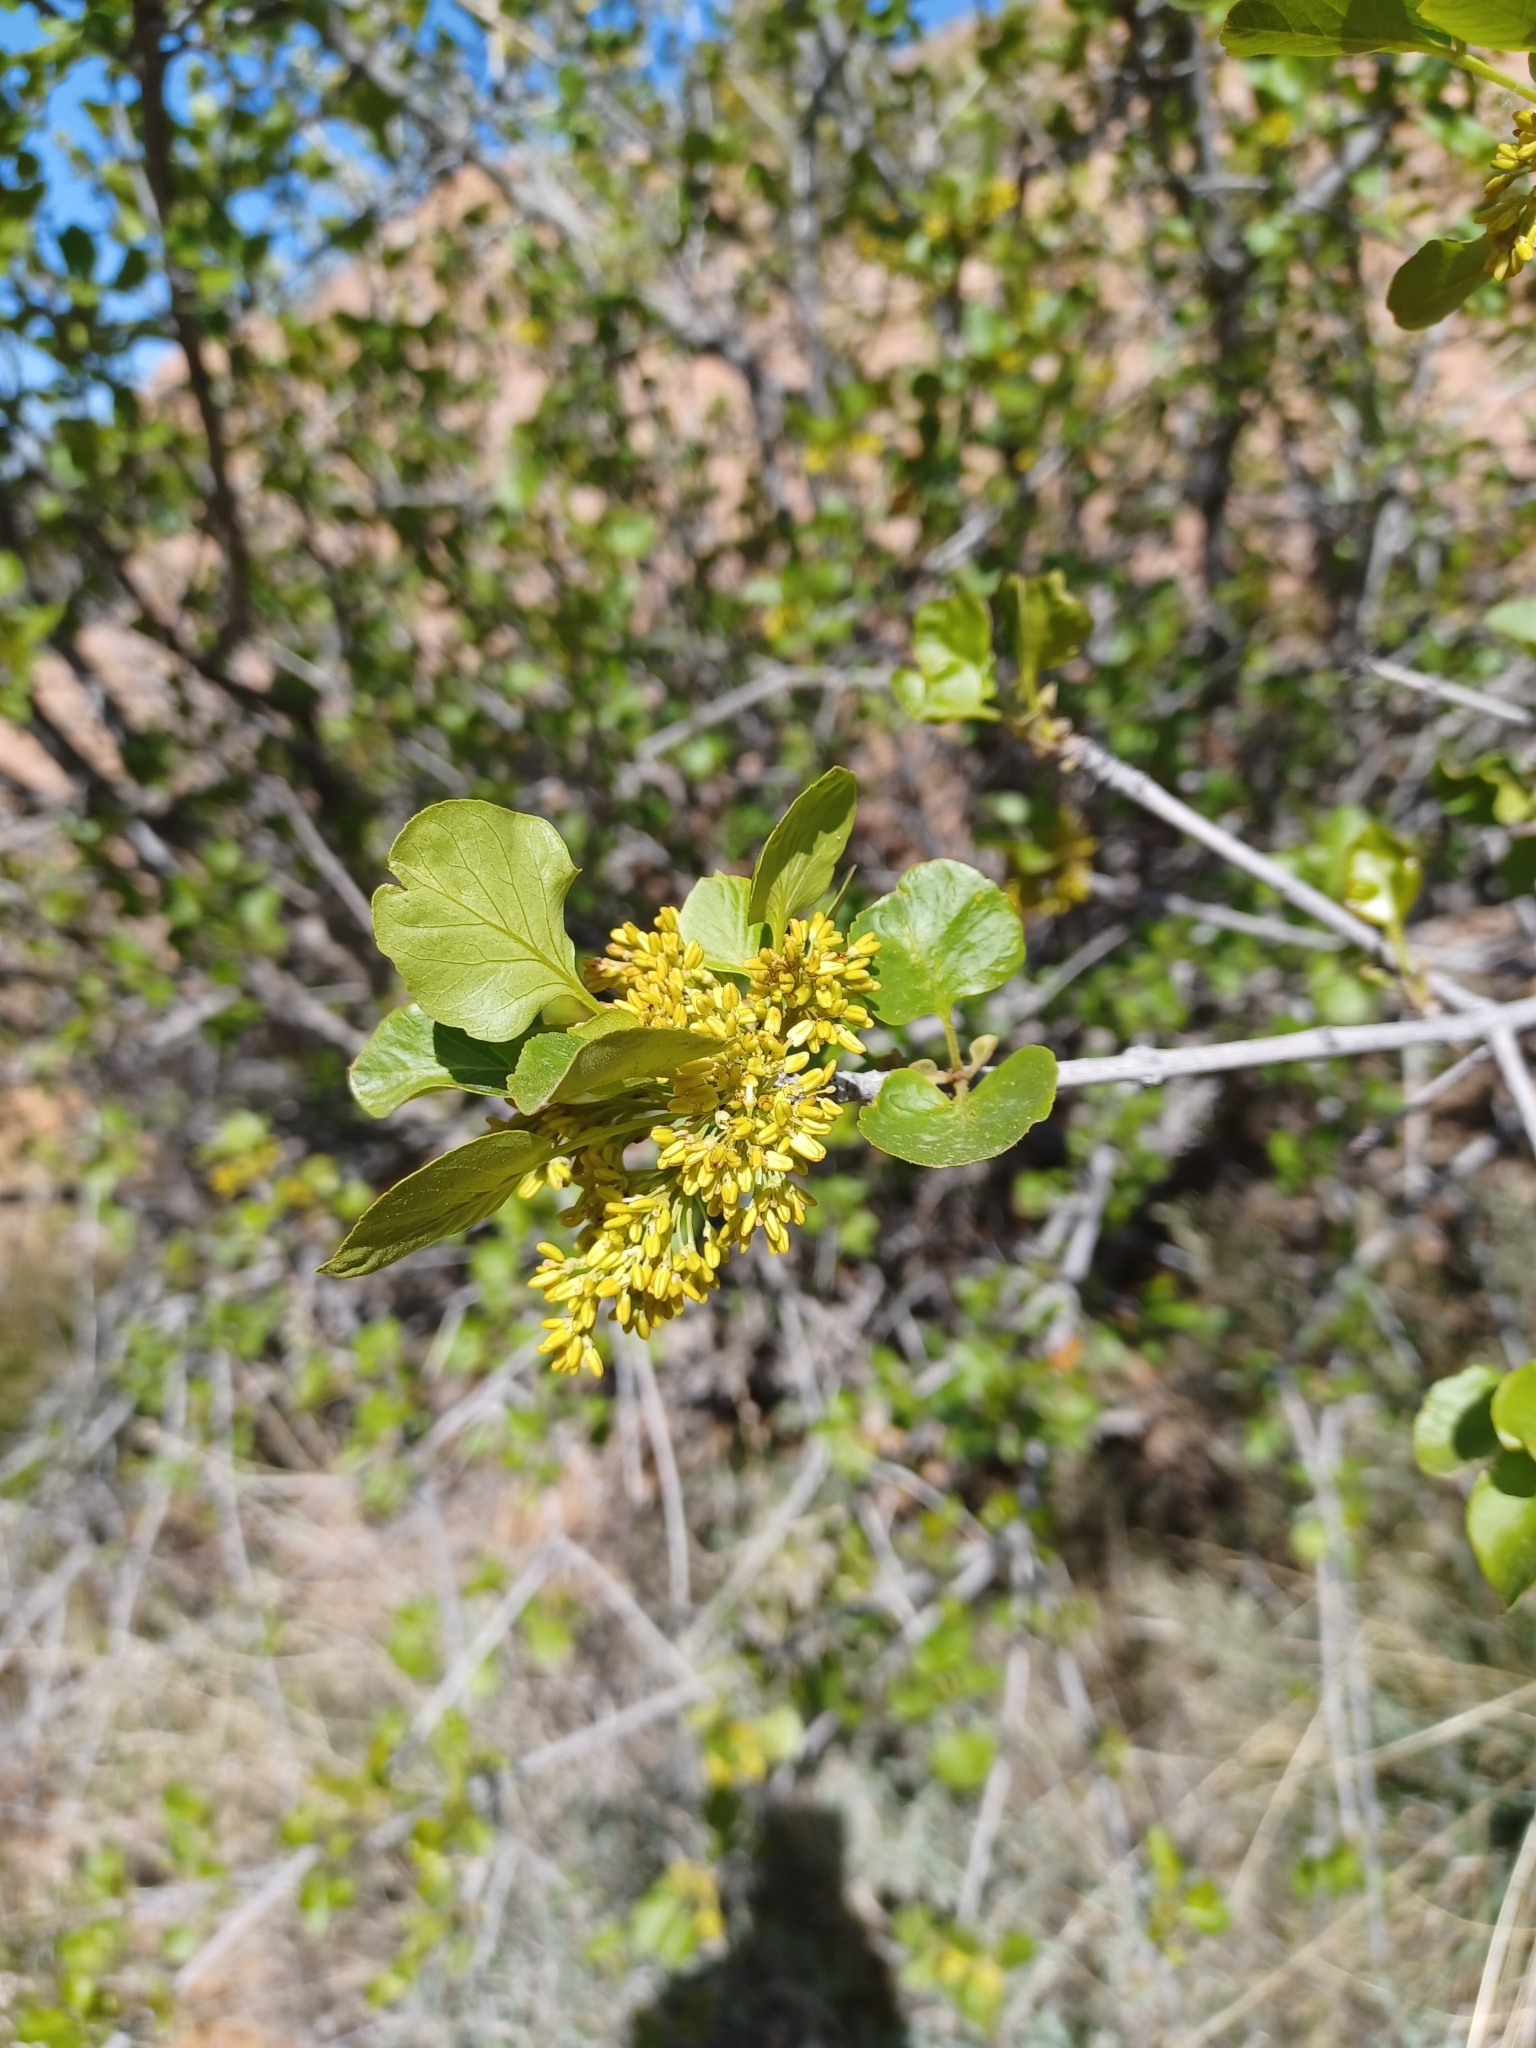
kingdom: Plantae
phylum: Tracheophyta
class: Magnoliopsida
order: Lamiales
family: Oleaceae
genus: Fraxinus
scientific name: Fraxinus anomala
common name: Utah ash
